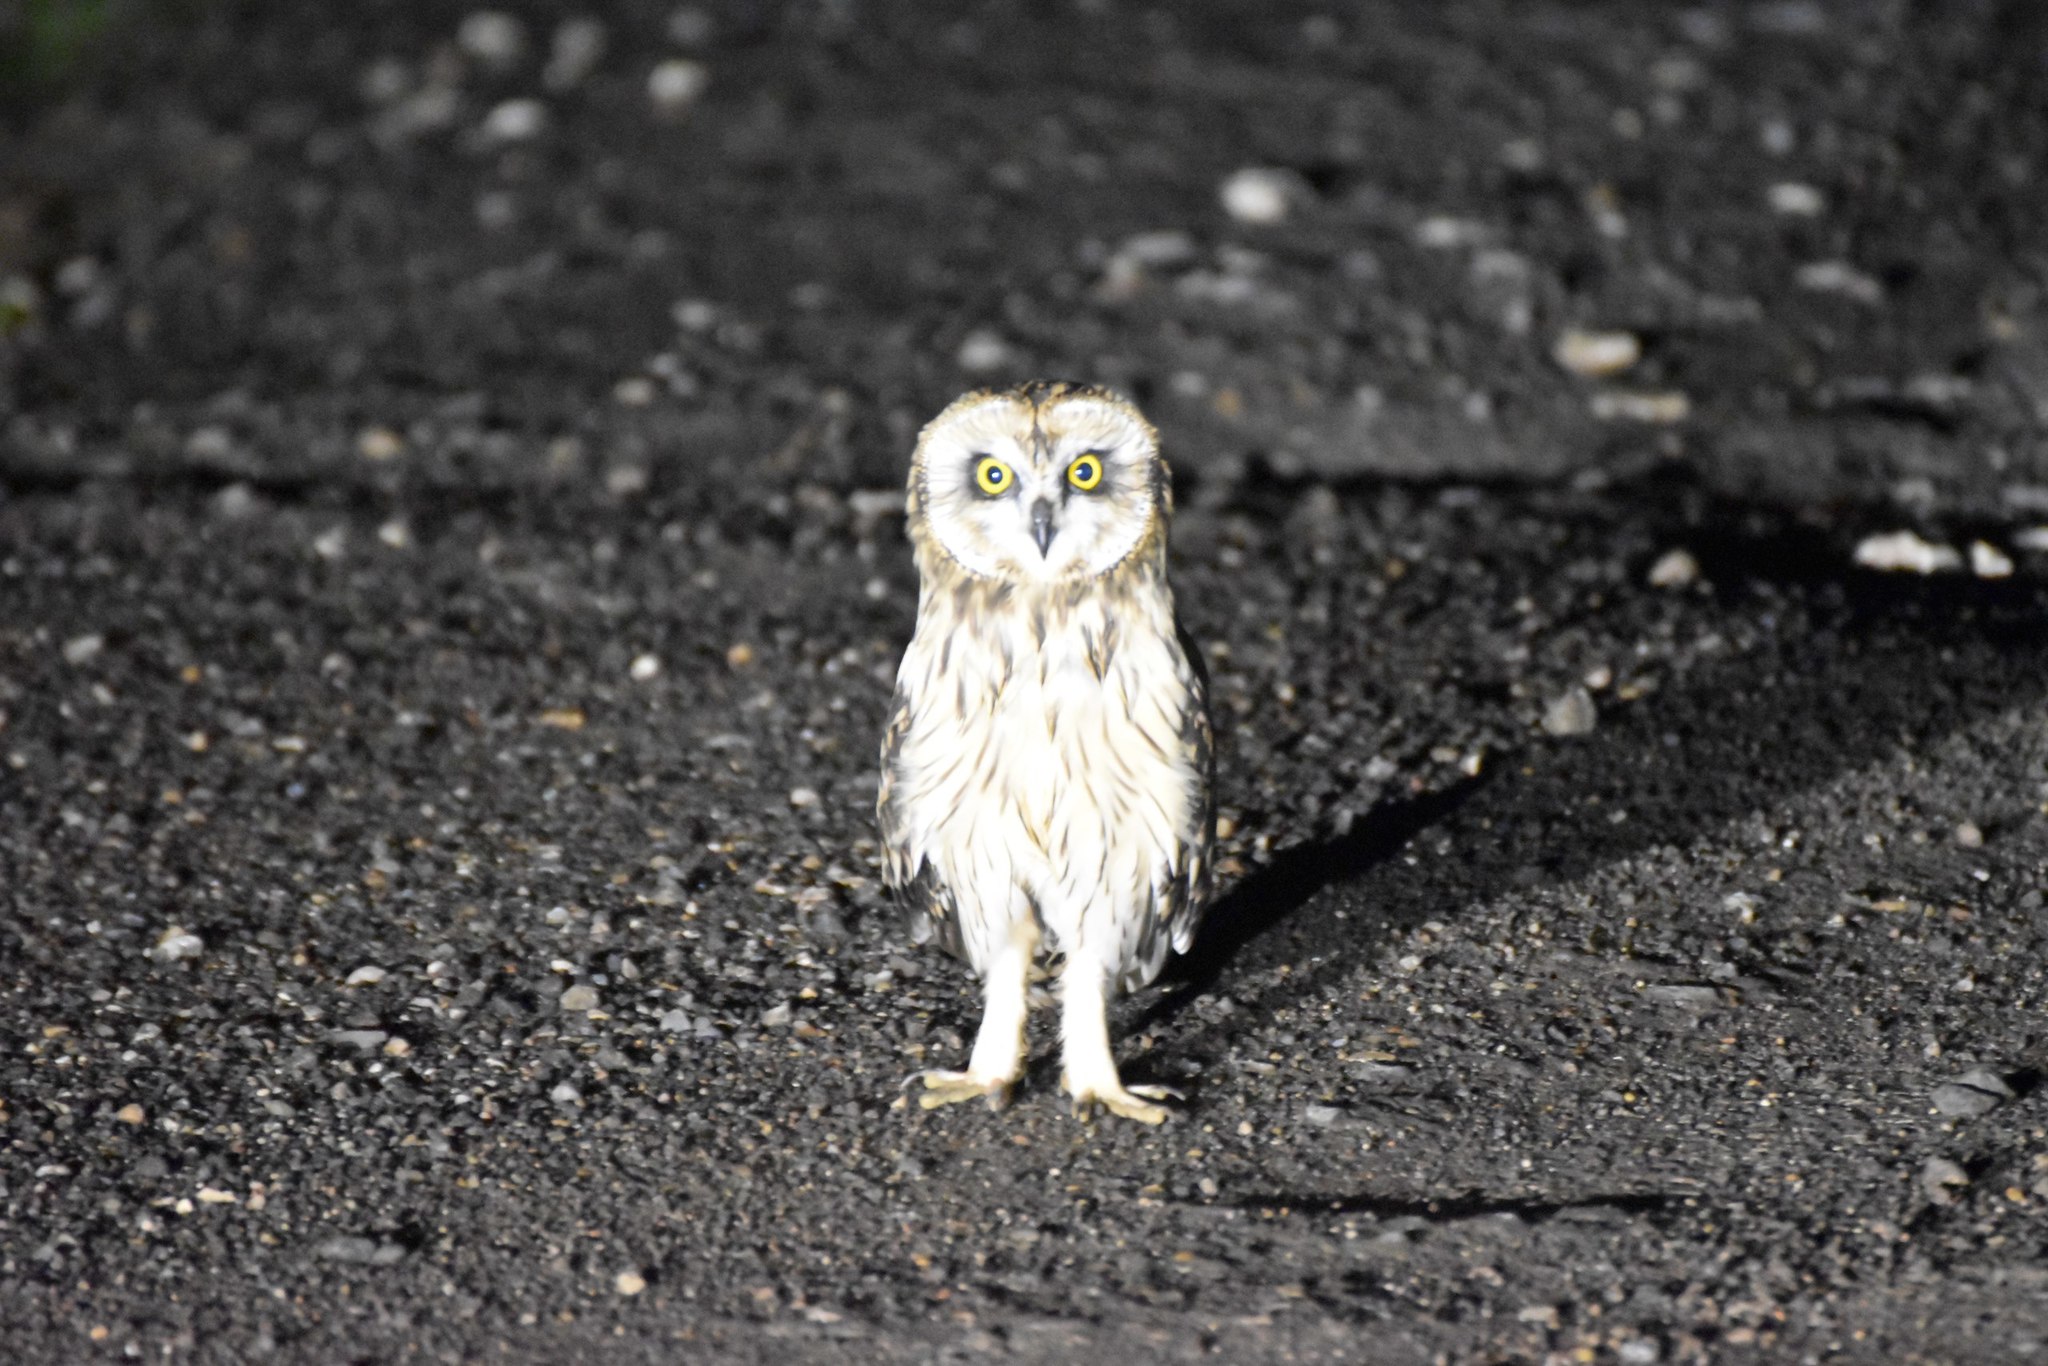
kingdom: Animalia
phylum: Chordata
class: Aves
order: Strigiformes
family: Strigidae
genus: Asio
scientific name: Asio flammeus
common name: Short-eared owl
